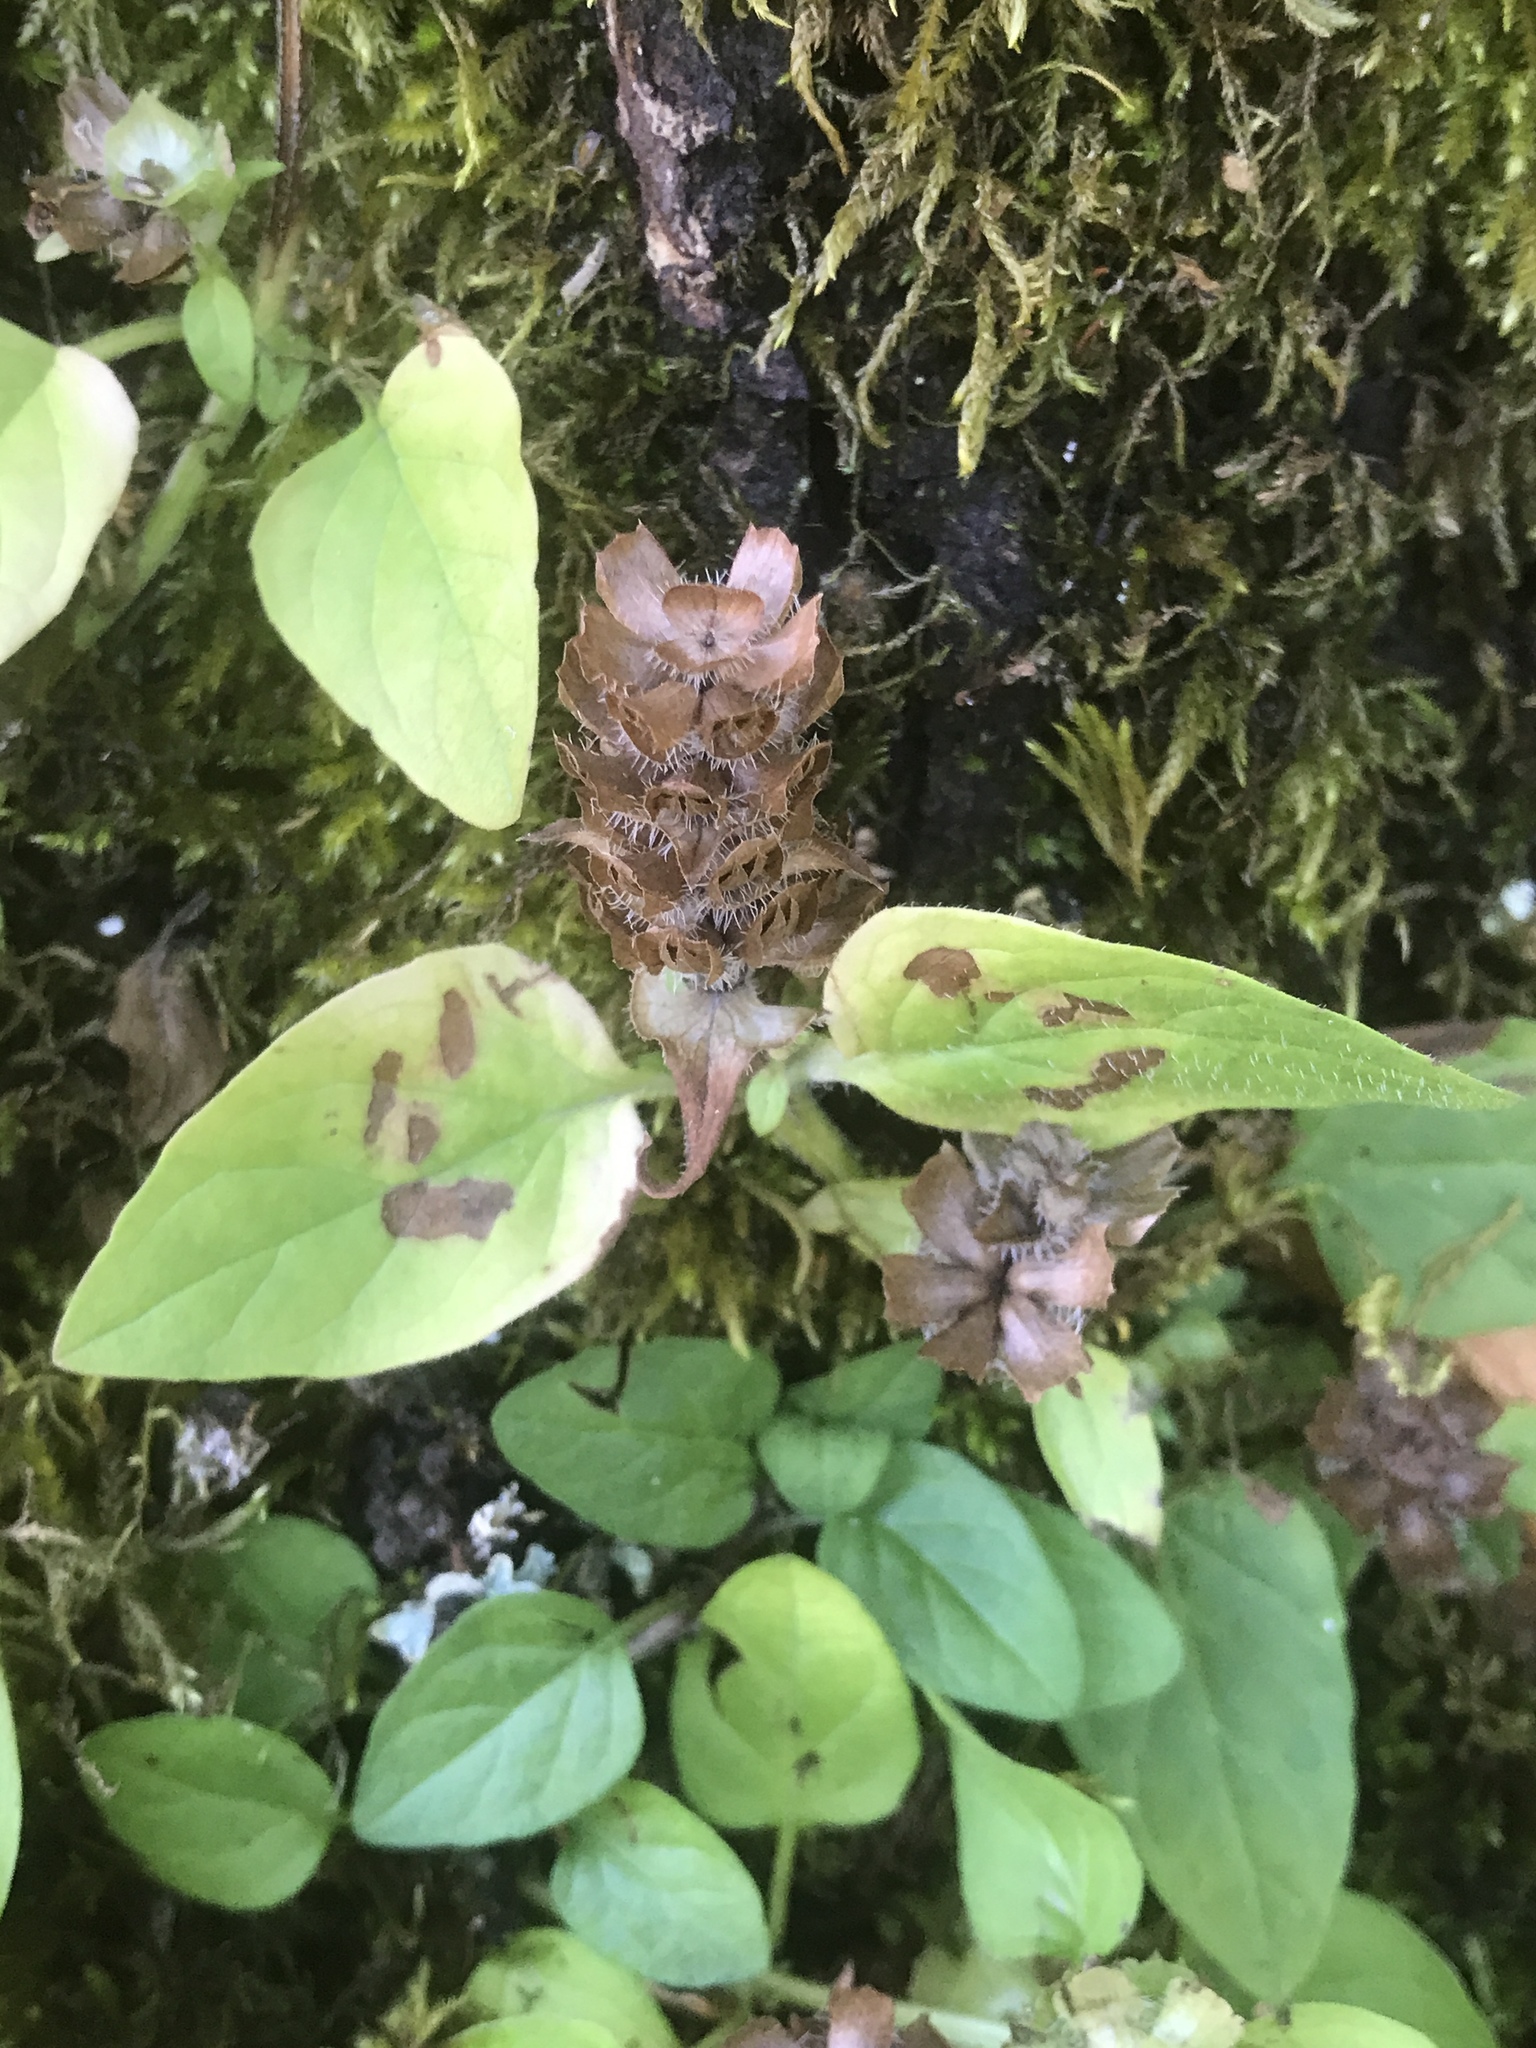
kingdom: Plantae
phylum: Tracheophyta
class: Magnoliopsida
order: Lamiales
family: Lamiaceae
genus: Prunella
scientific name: Prunella vulgaris
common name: Heal-all
